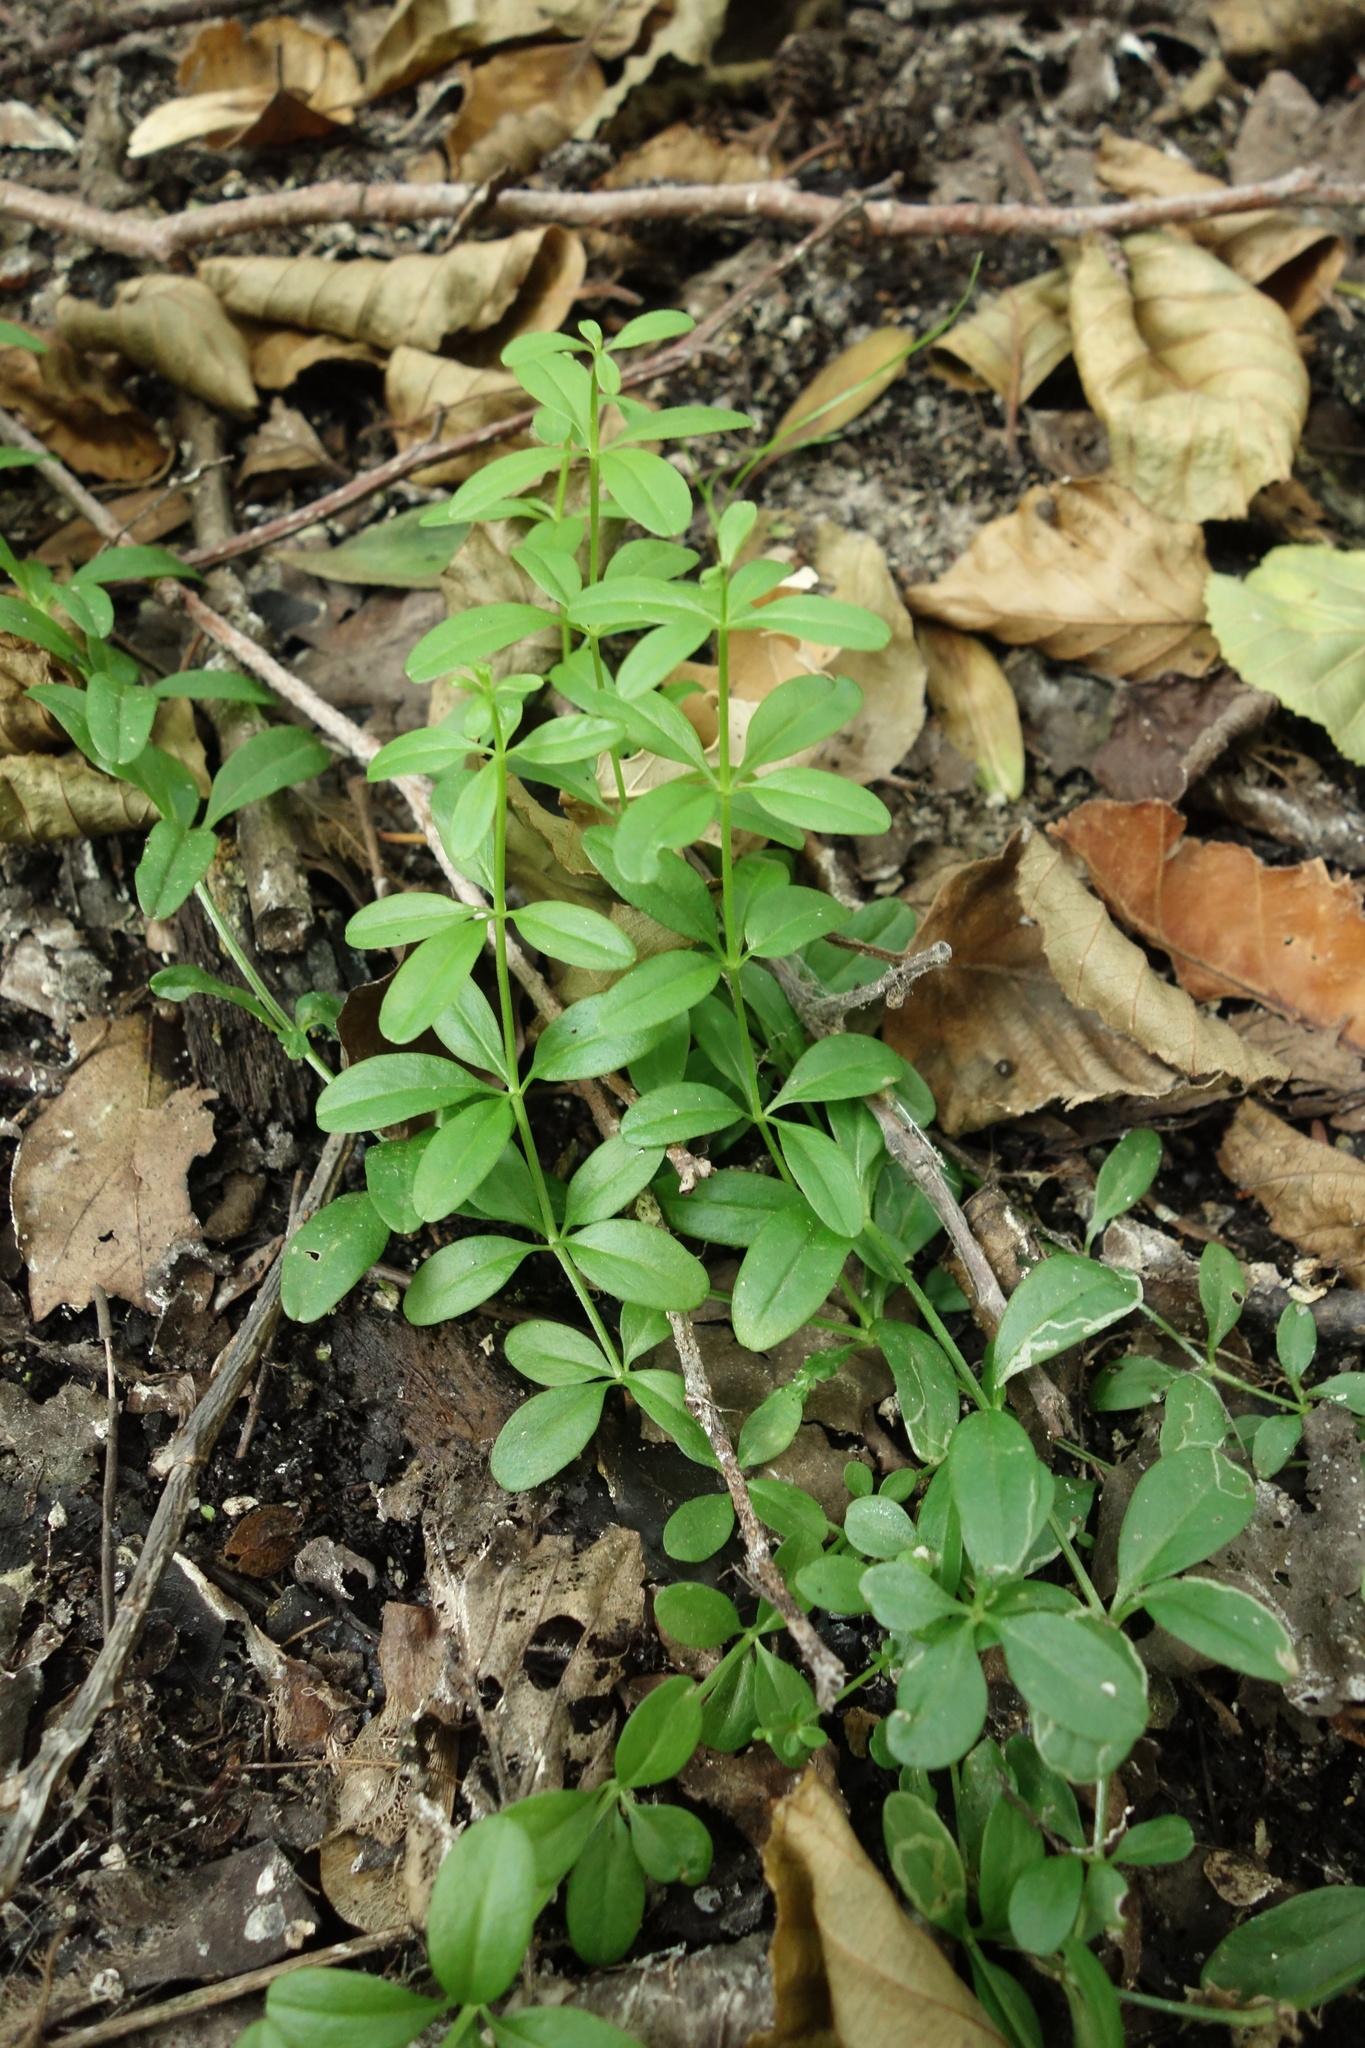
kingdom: Plantae
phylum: Tracheophyta
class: Magnoliopsida
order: Gentianales
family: Rubiaceae
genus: Galium
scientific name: Galium palustre
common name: Common marsh-bedstraw
